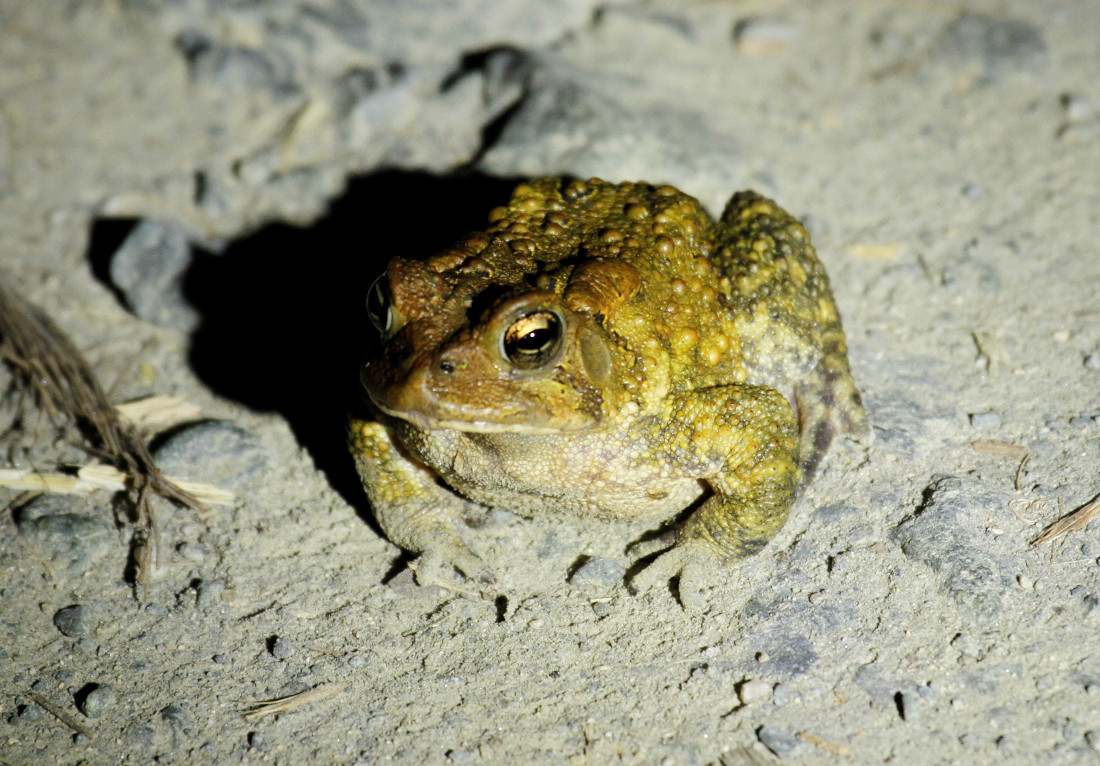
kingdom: Animalia
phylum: Chordata
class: Amphibia
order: Anura
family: Bufonidae
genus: Anaxyrus
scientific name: Anaxyrus americanus
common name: American toad
